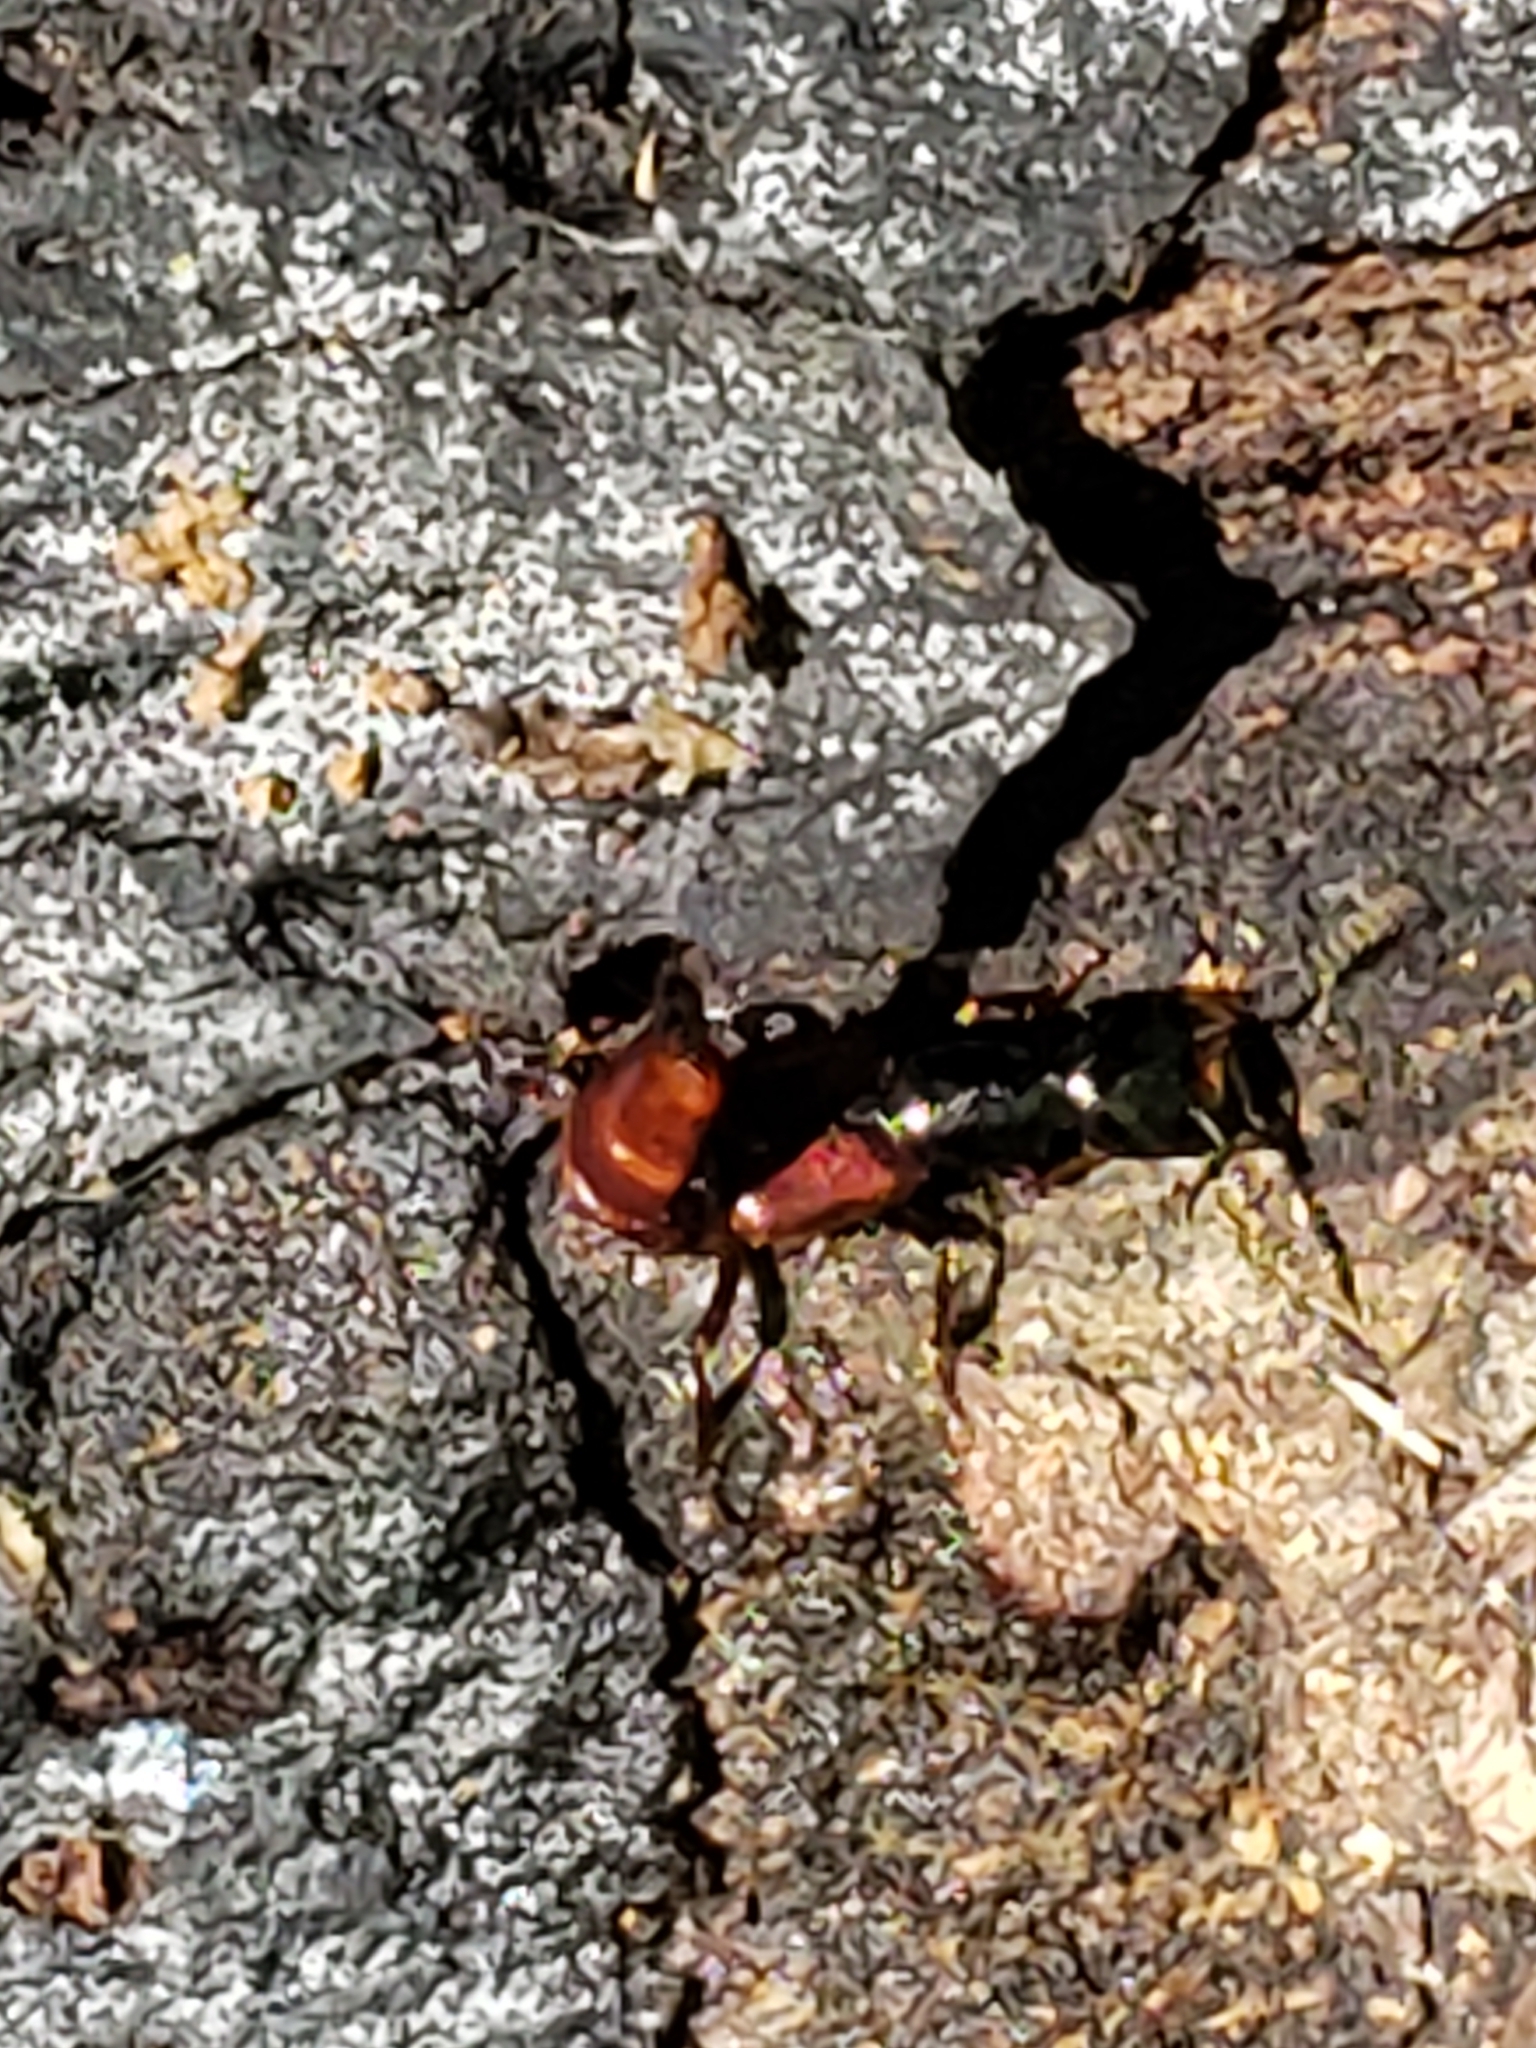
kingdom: Animalia
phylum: Arthropoda
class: Insecta
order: Coleoptera
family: Staphylinidae
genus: Hesperus
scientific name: Hesperus baltimorensis
